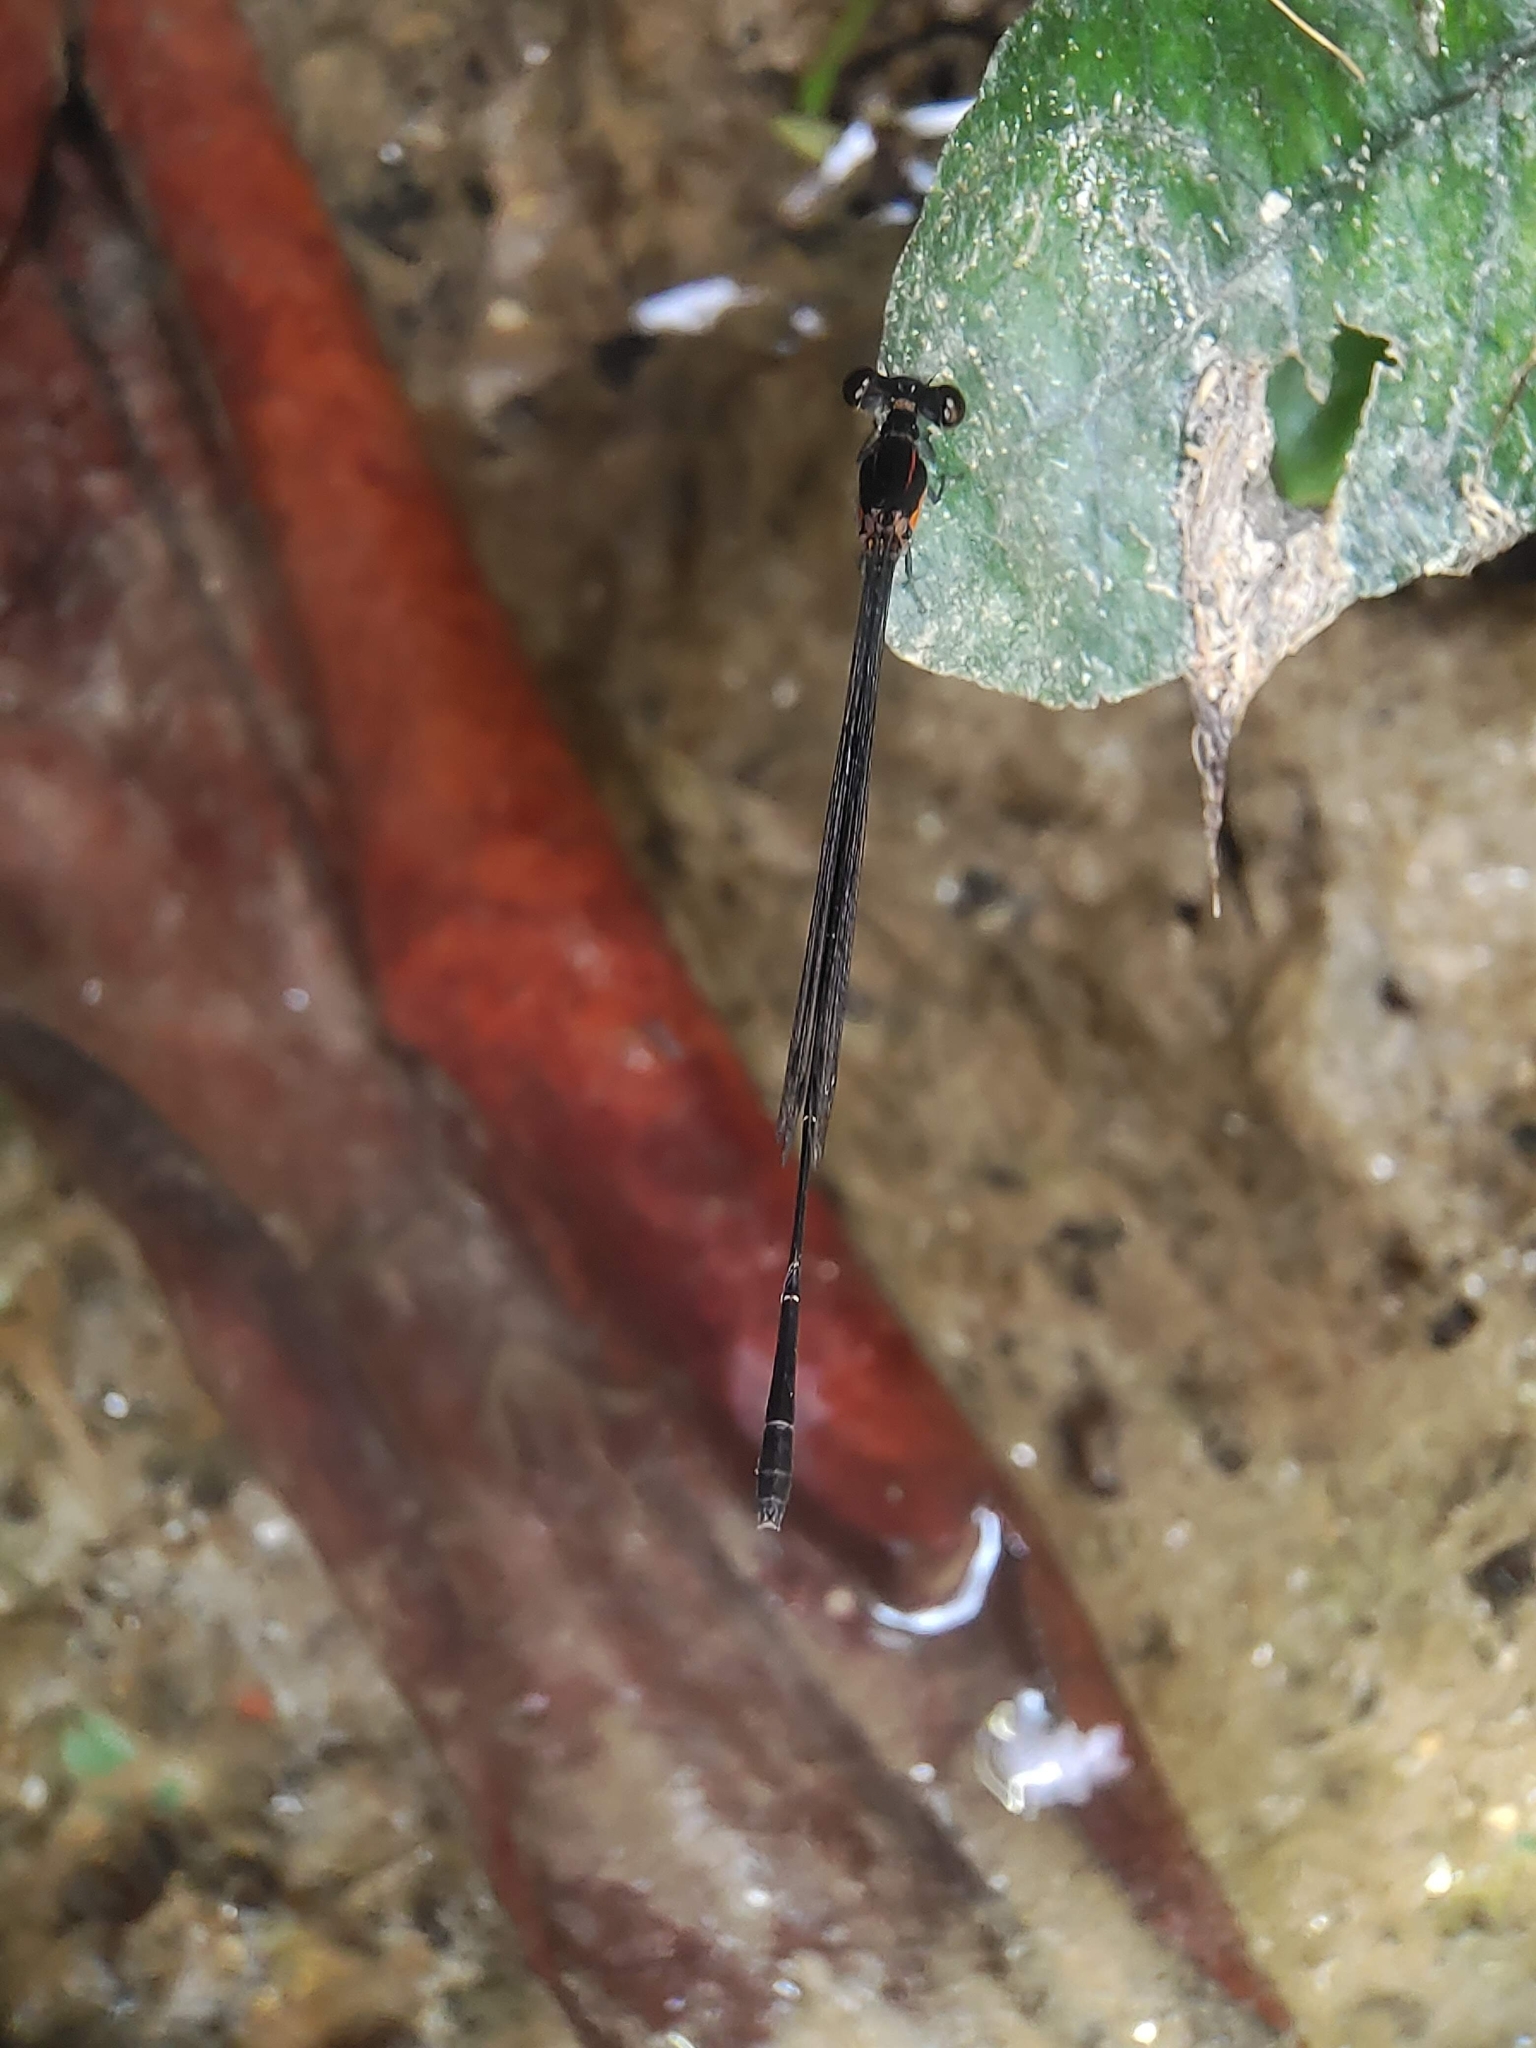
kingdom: Animalia
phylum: Arthropoda
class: Insecta
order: Odonata
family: Platycnemididae
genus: Prodasineura
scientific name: Prodasineura verticalis
